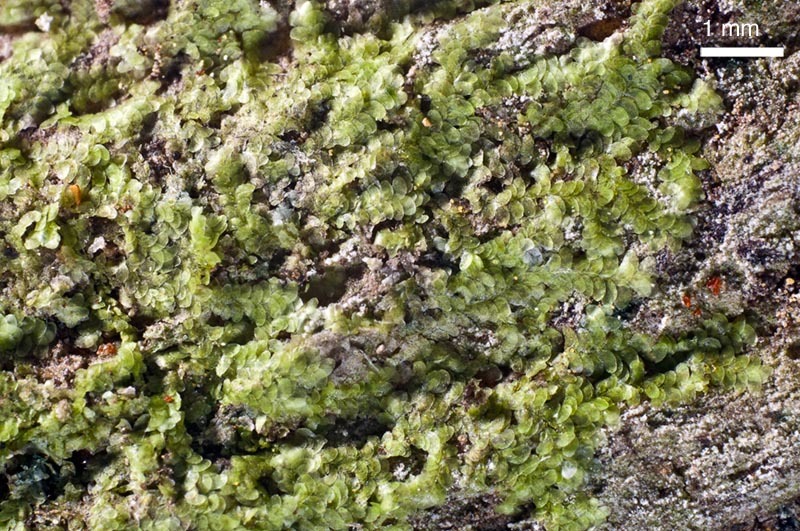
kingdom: Plantae
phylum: Marchantiophyta
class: Jungermanniopsida
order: Porellales
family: Lejeuneaceae
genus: Cololejeunea
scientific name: Cololejeunea appressa
